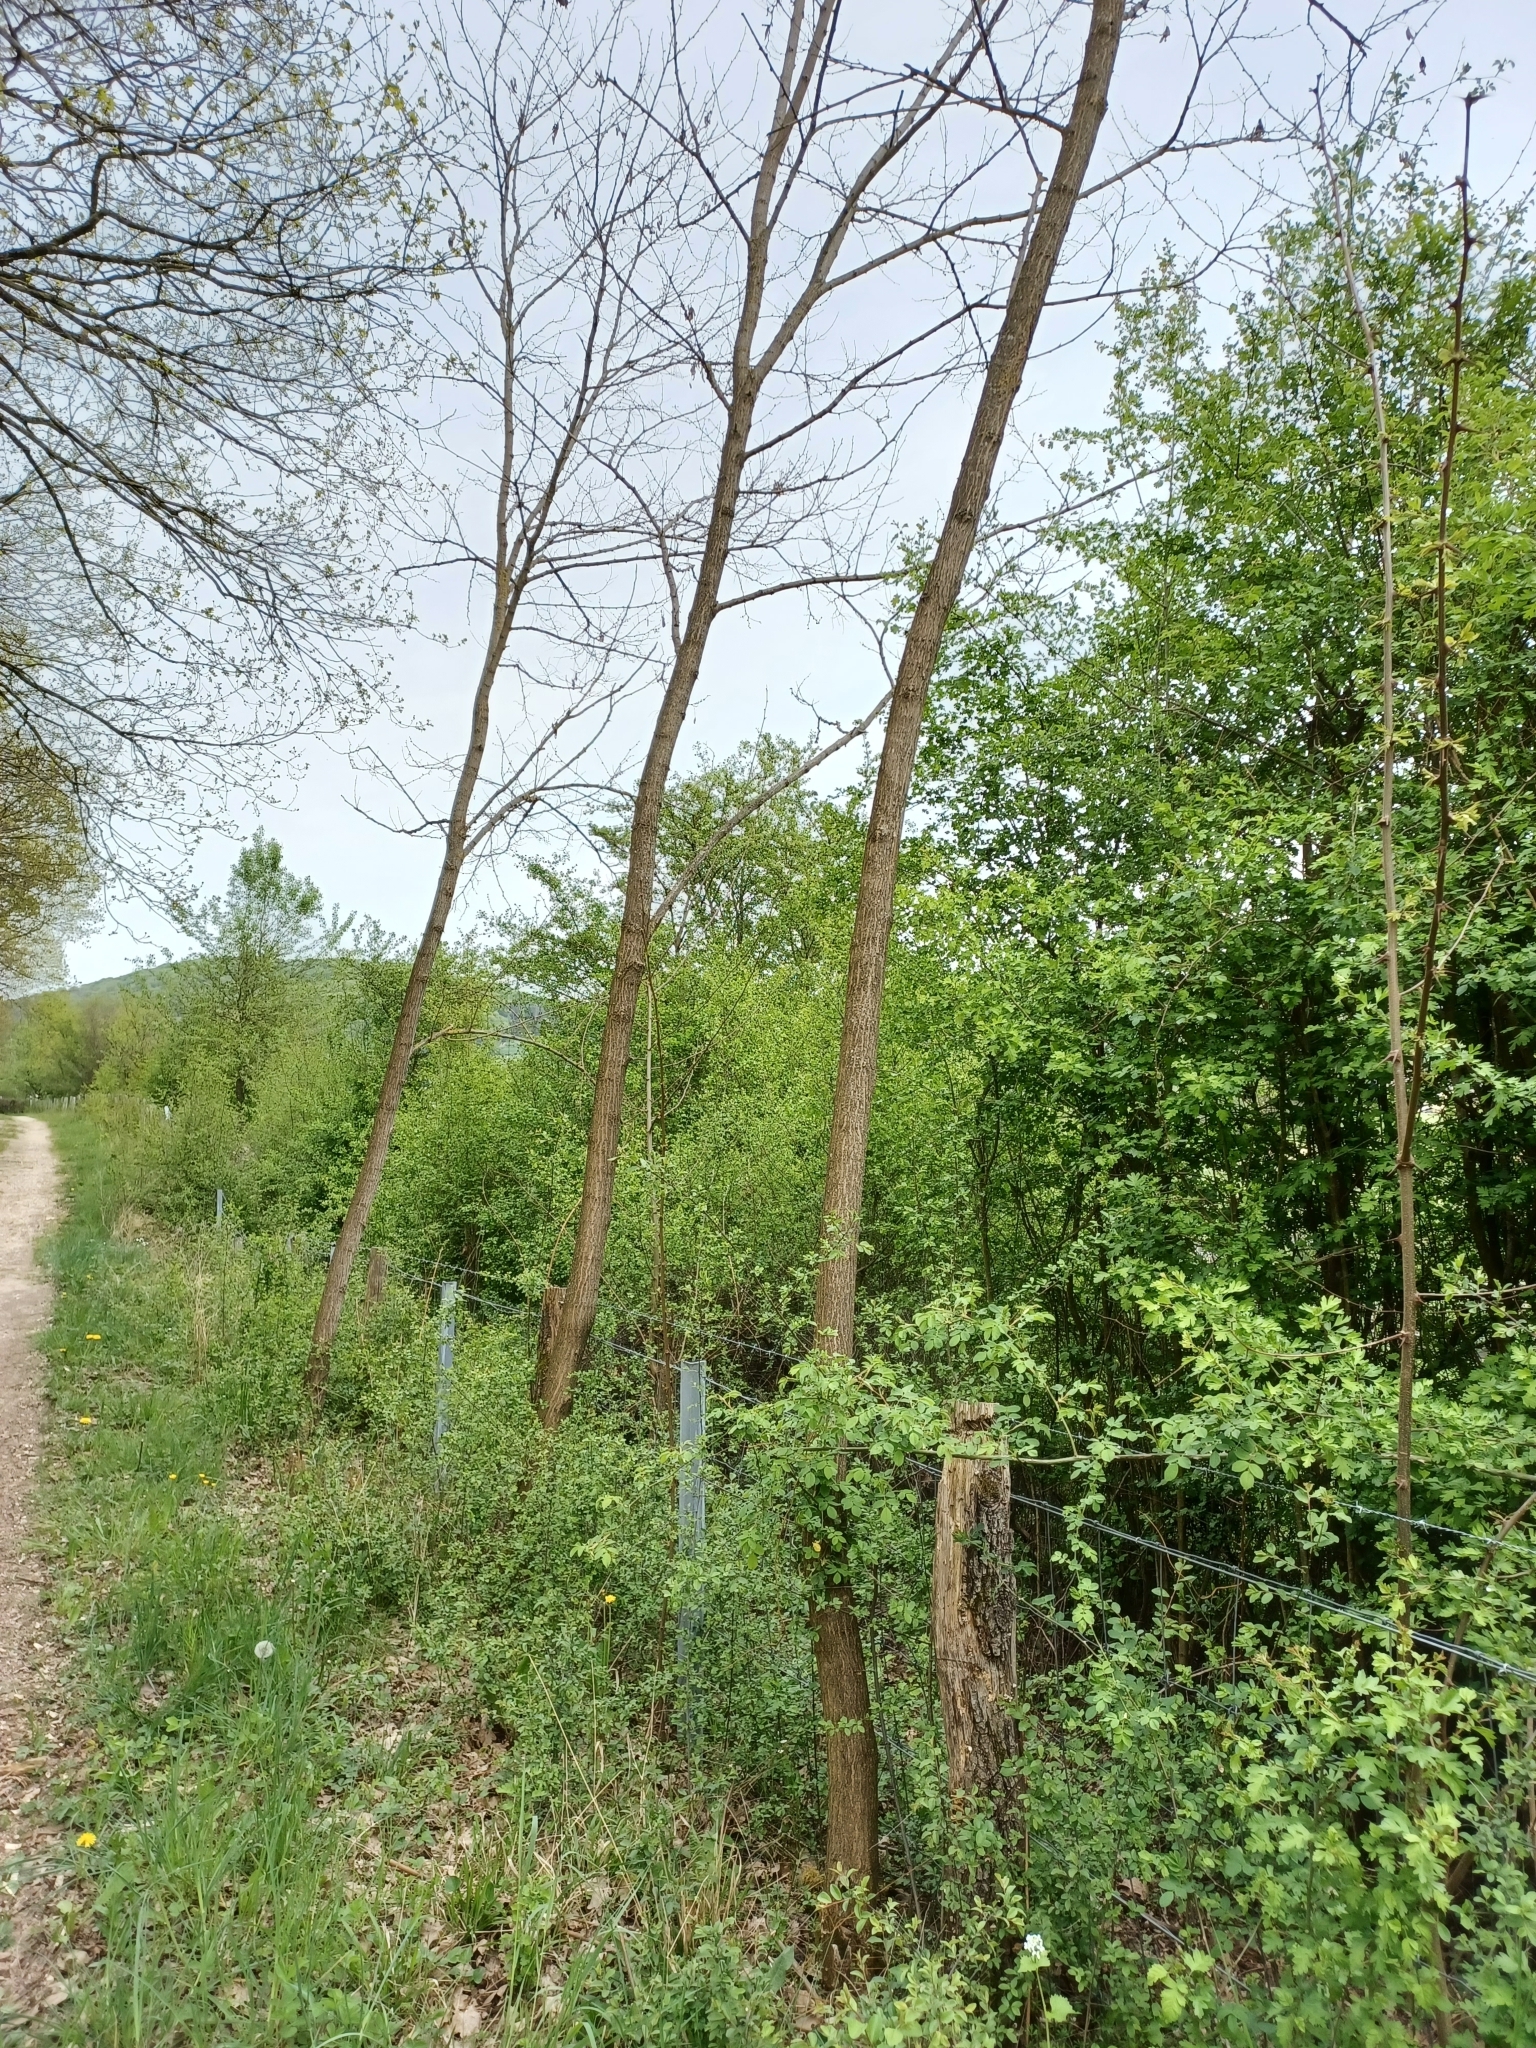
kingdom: Plantae
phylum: Tracheophyta
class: Magnoliopsida
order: Fabales
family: Fabaceae
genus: Robinia
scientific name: Robinia pseudoacacia
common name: Black locust
